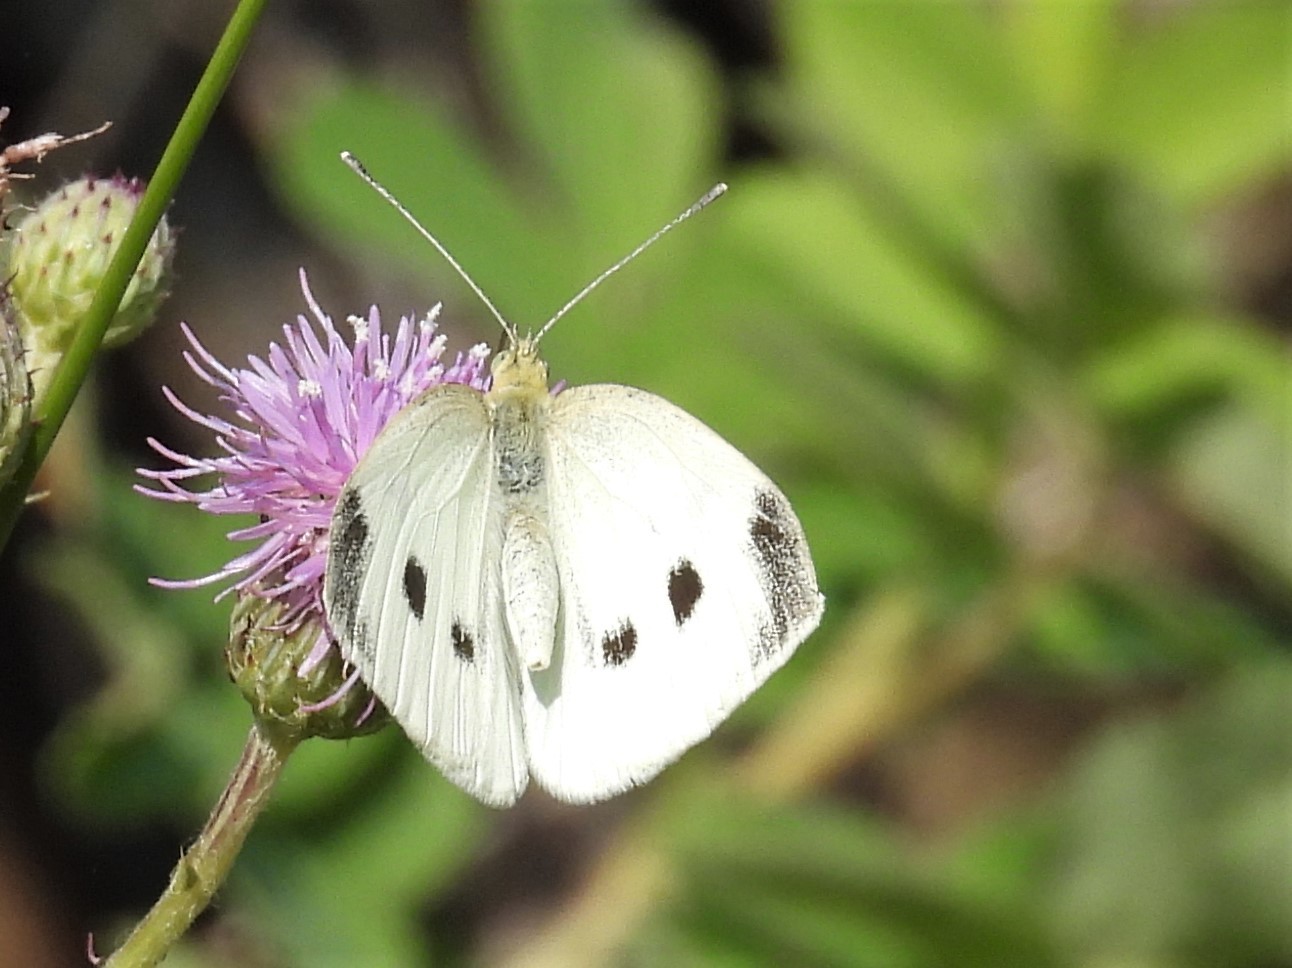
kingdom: Animalia
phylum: Arthropoda
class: Insecta
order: Lepidoptera
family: Pieridae
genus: Pieris
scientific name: Pieris rapae
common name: Small white
